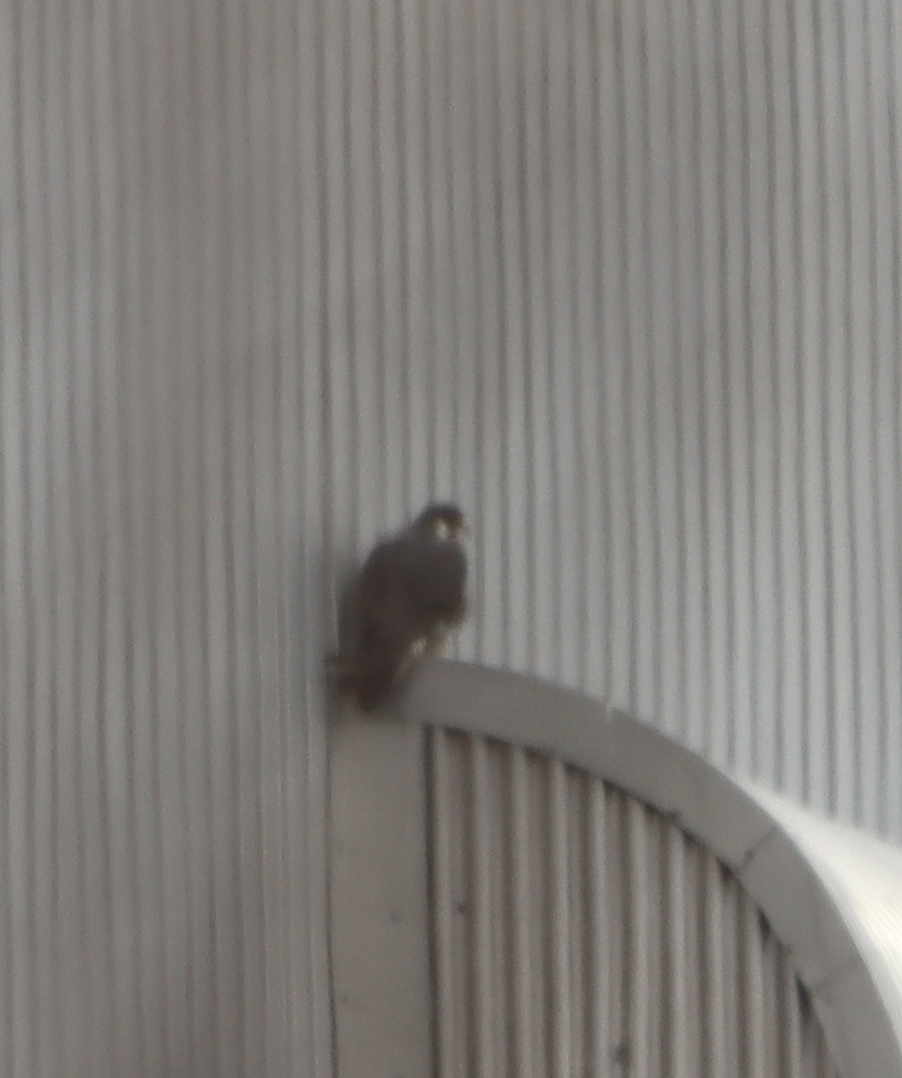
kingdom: Animalia
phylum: Chordata
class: Aves
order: Falconiformes
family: Falconidae
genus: Falco
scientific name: Falco peregrinus
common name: Peregrine falcon
